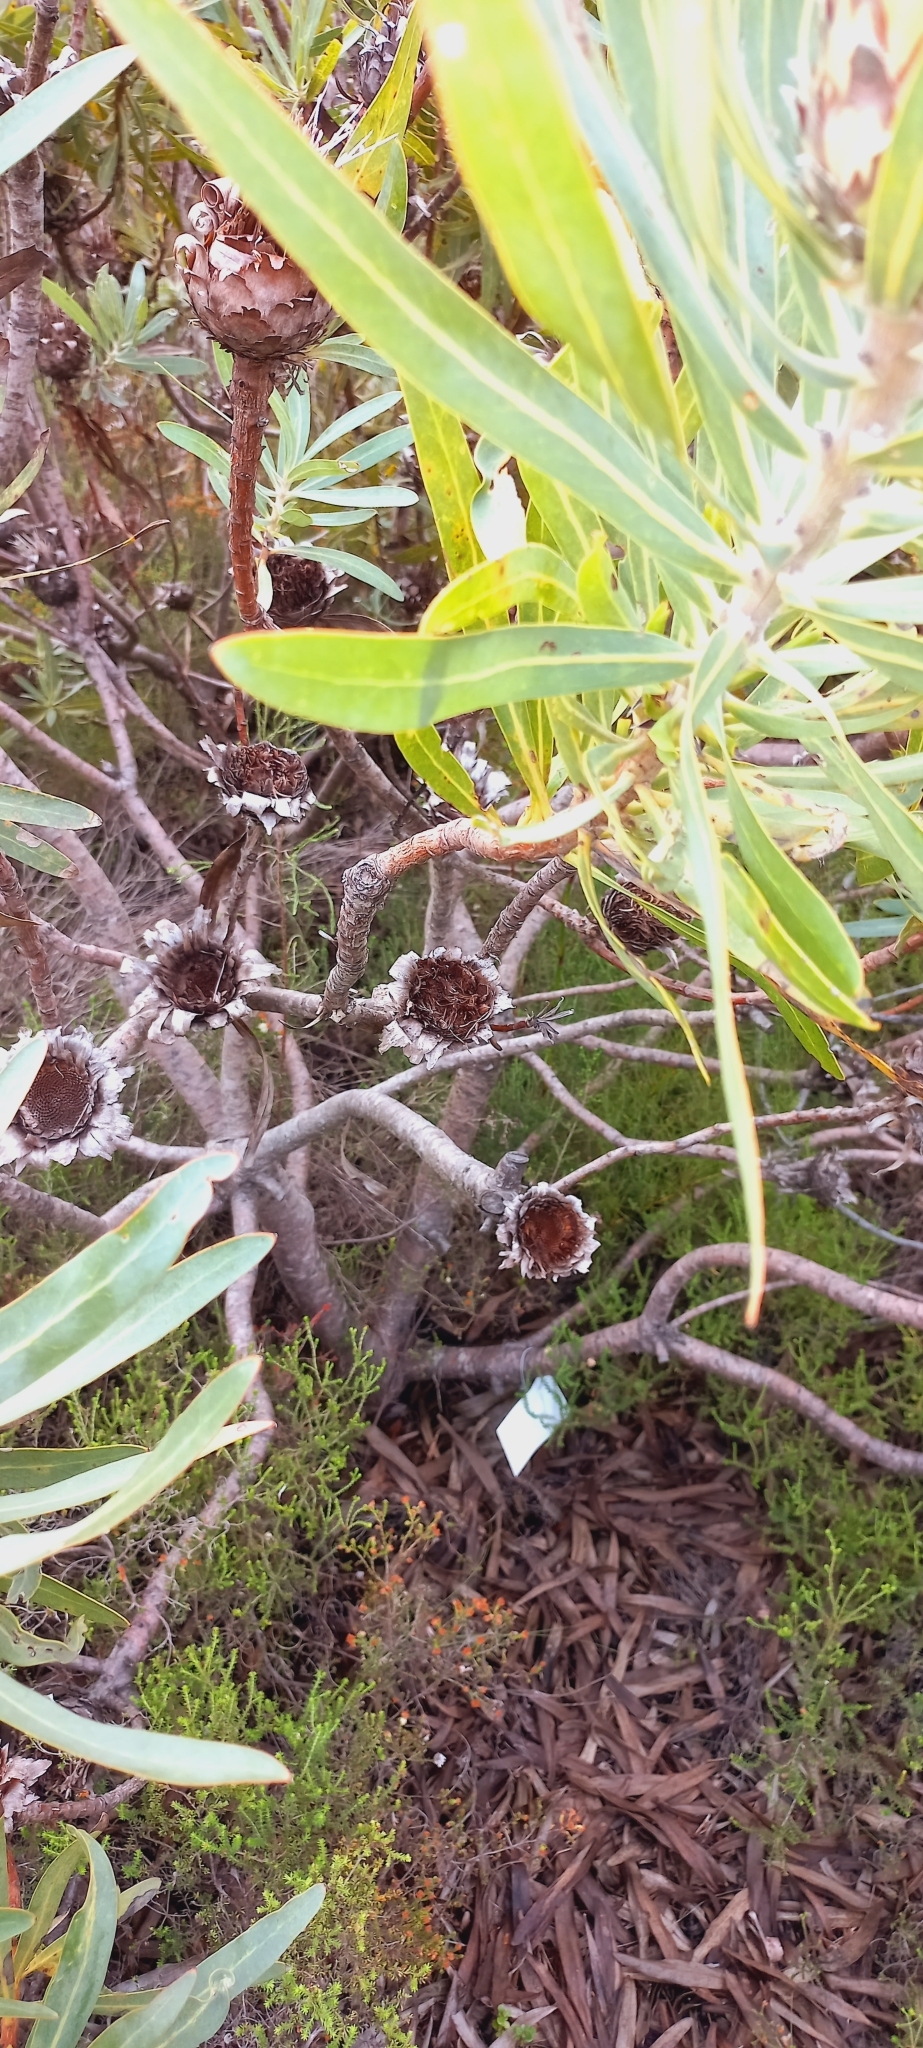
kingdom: Plantae
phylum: Tracheophyta
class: Magnoliopsida
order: Proteales
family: Proteaceae
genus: Protea
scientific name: Protea longifolia
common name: Long-leaf sugarbush
